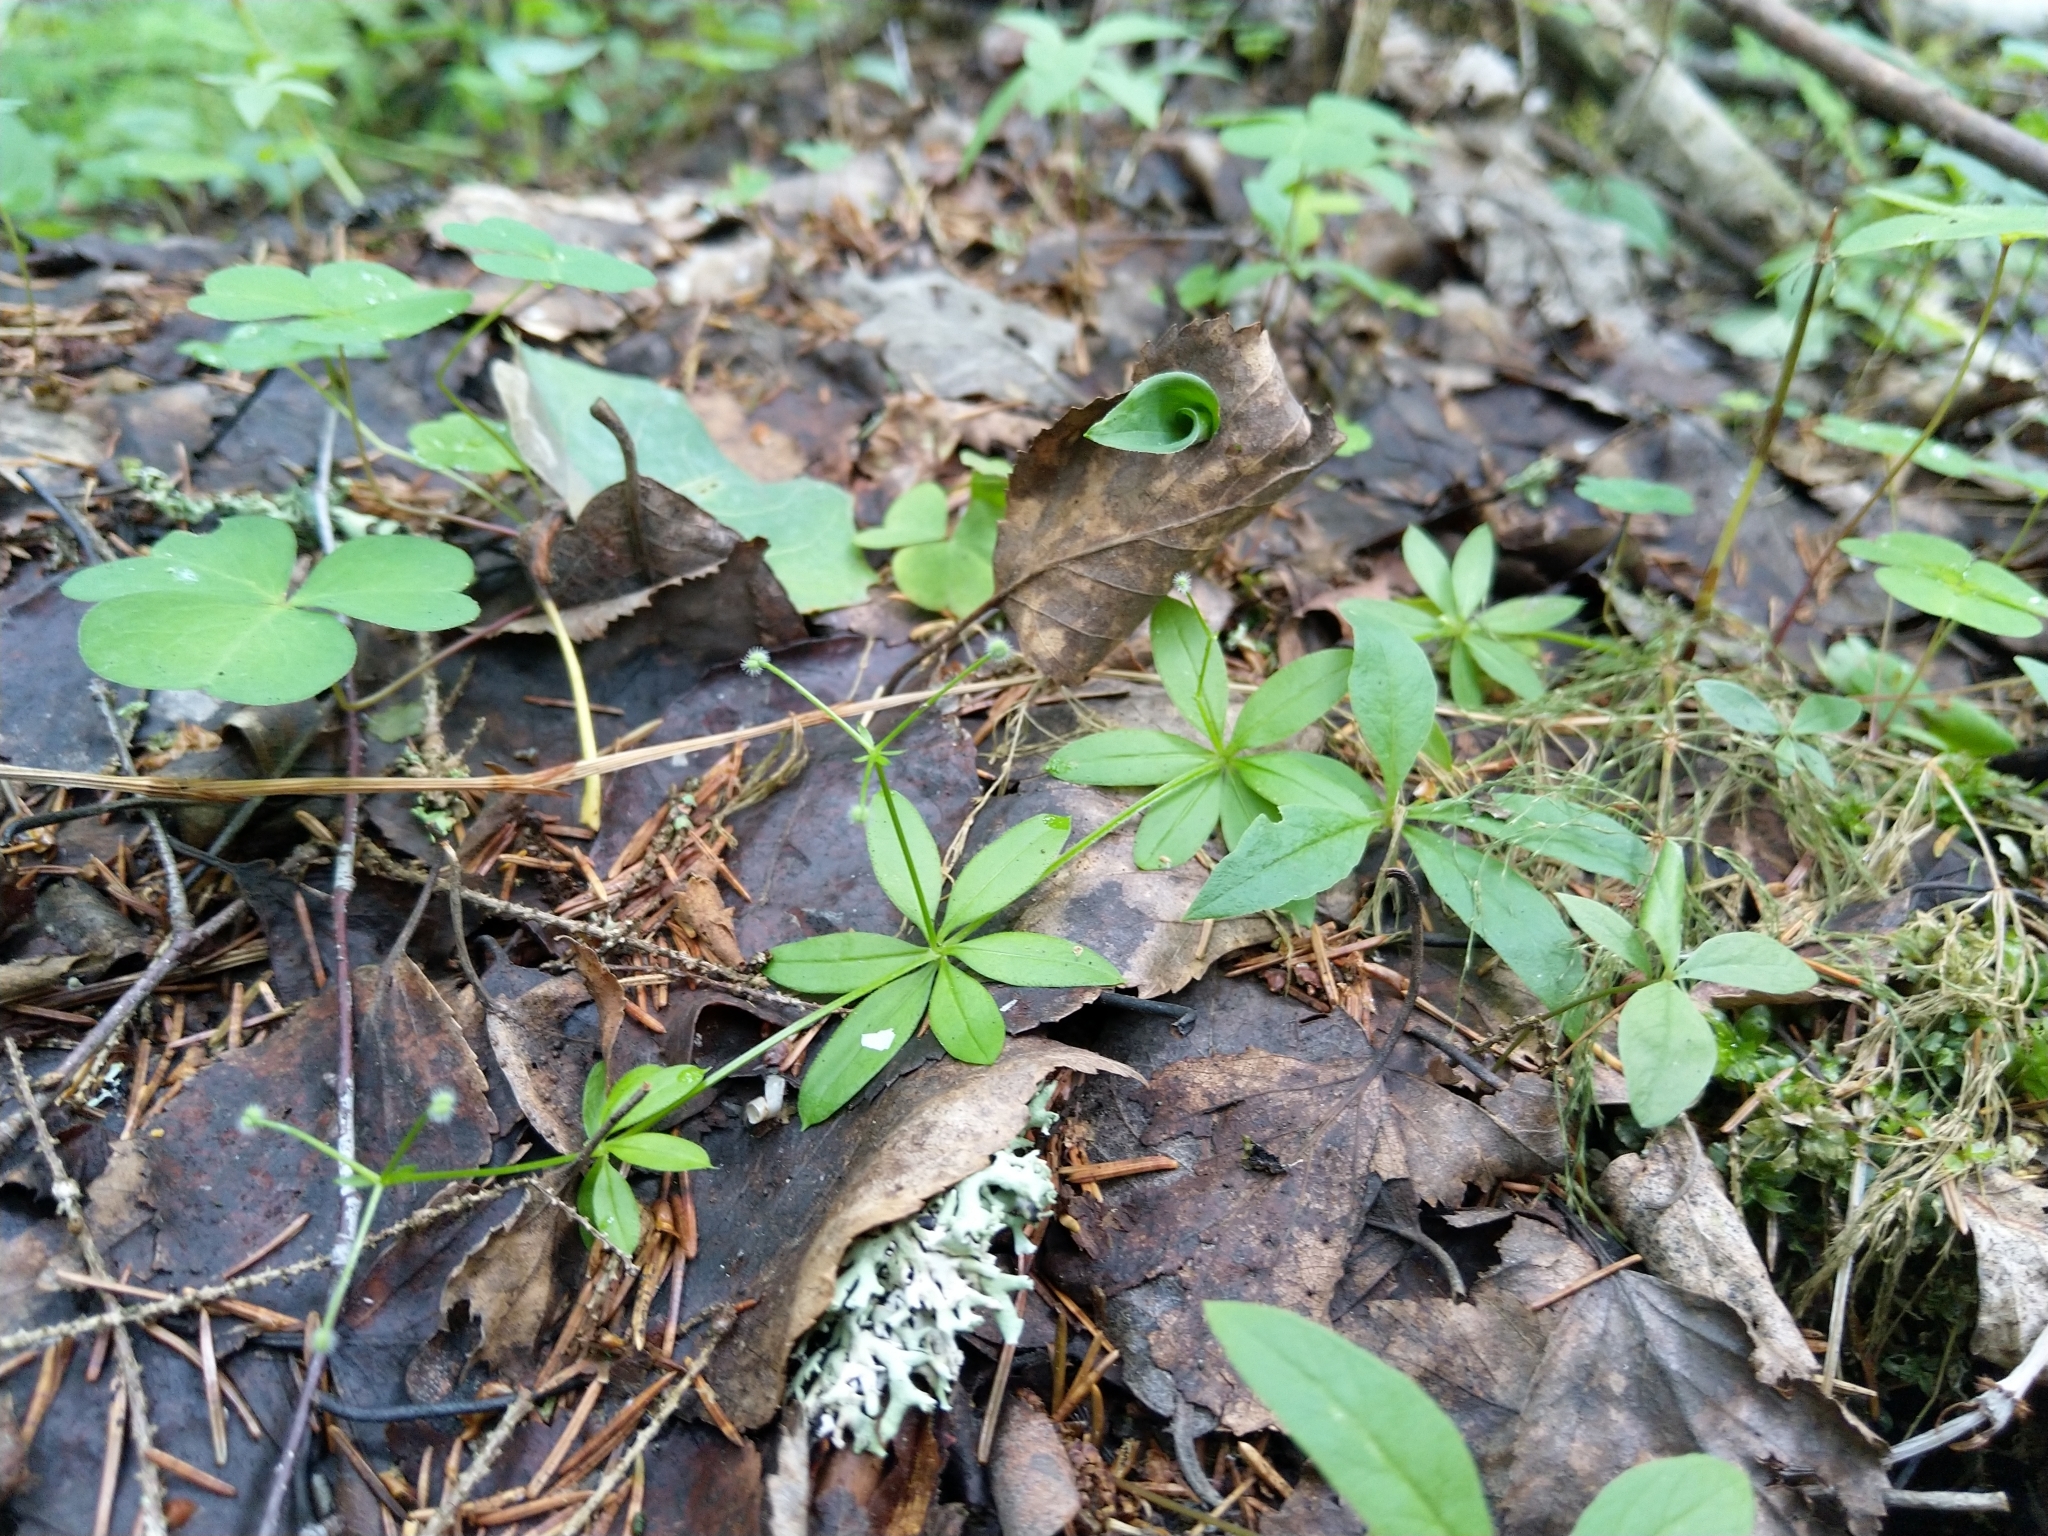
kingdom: Plantae
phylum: Tracheophyta
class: Magnoliopsida
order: Gentianales
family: Rubiaceae
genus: Galium
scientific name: Galium triflorum
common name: Fragrant bedstraw
